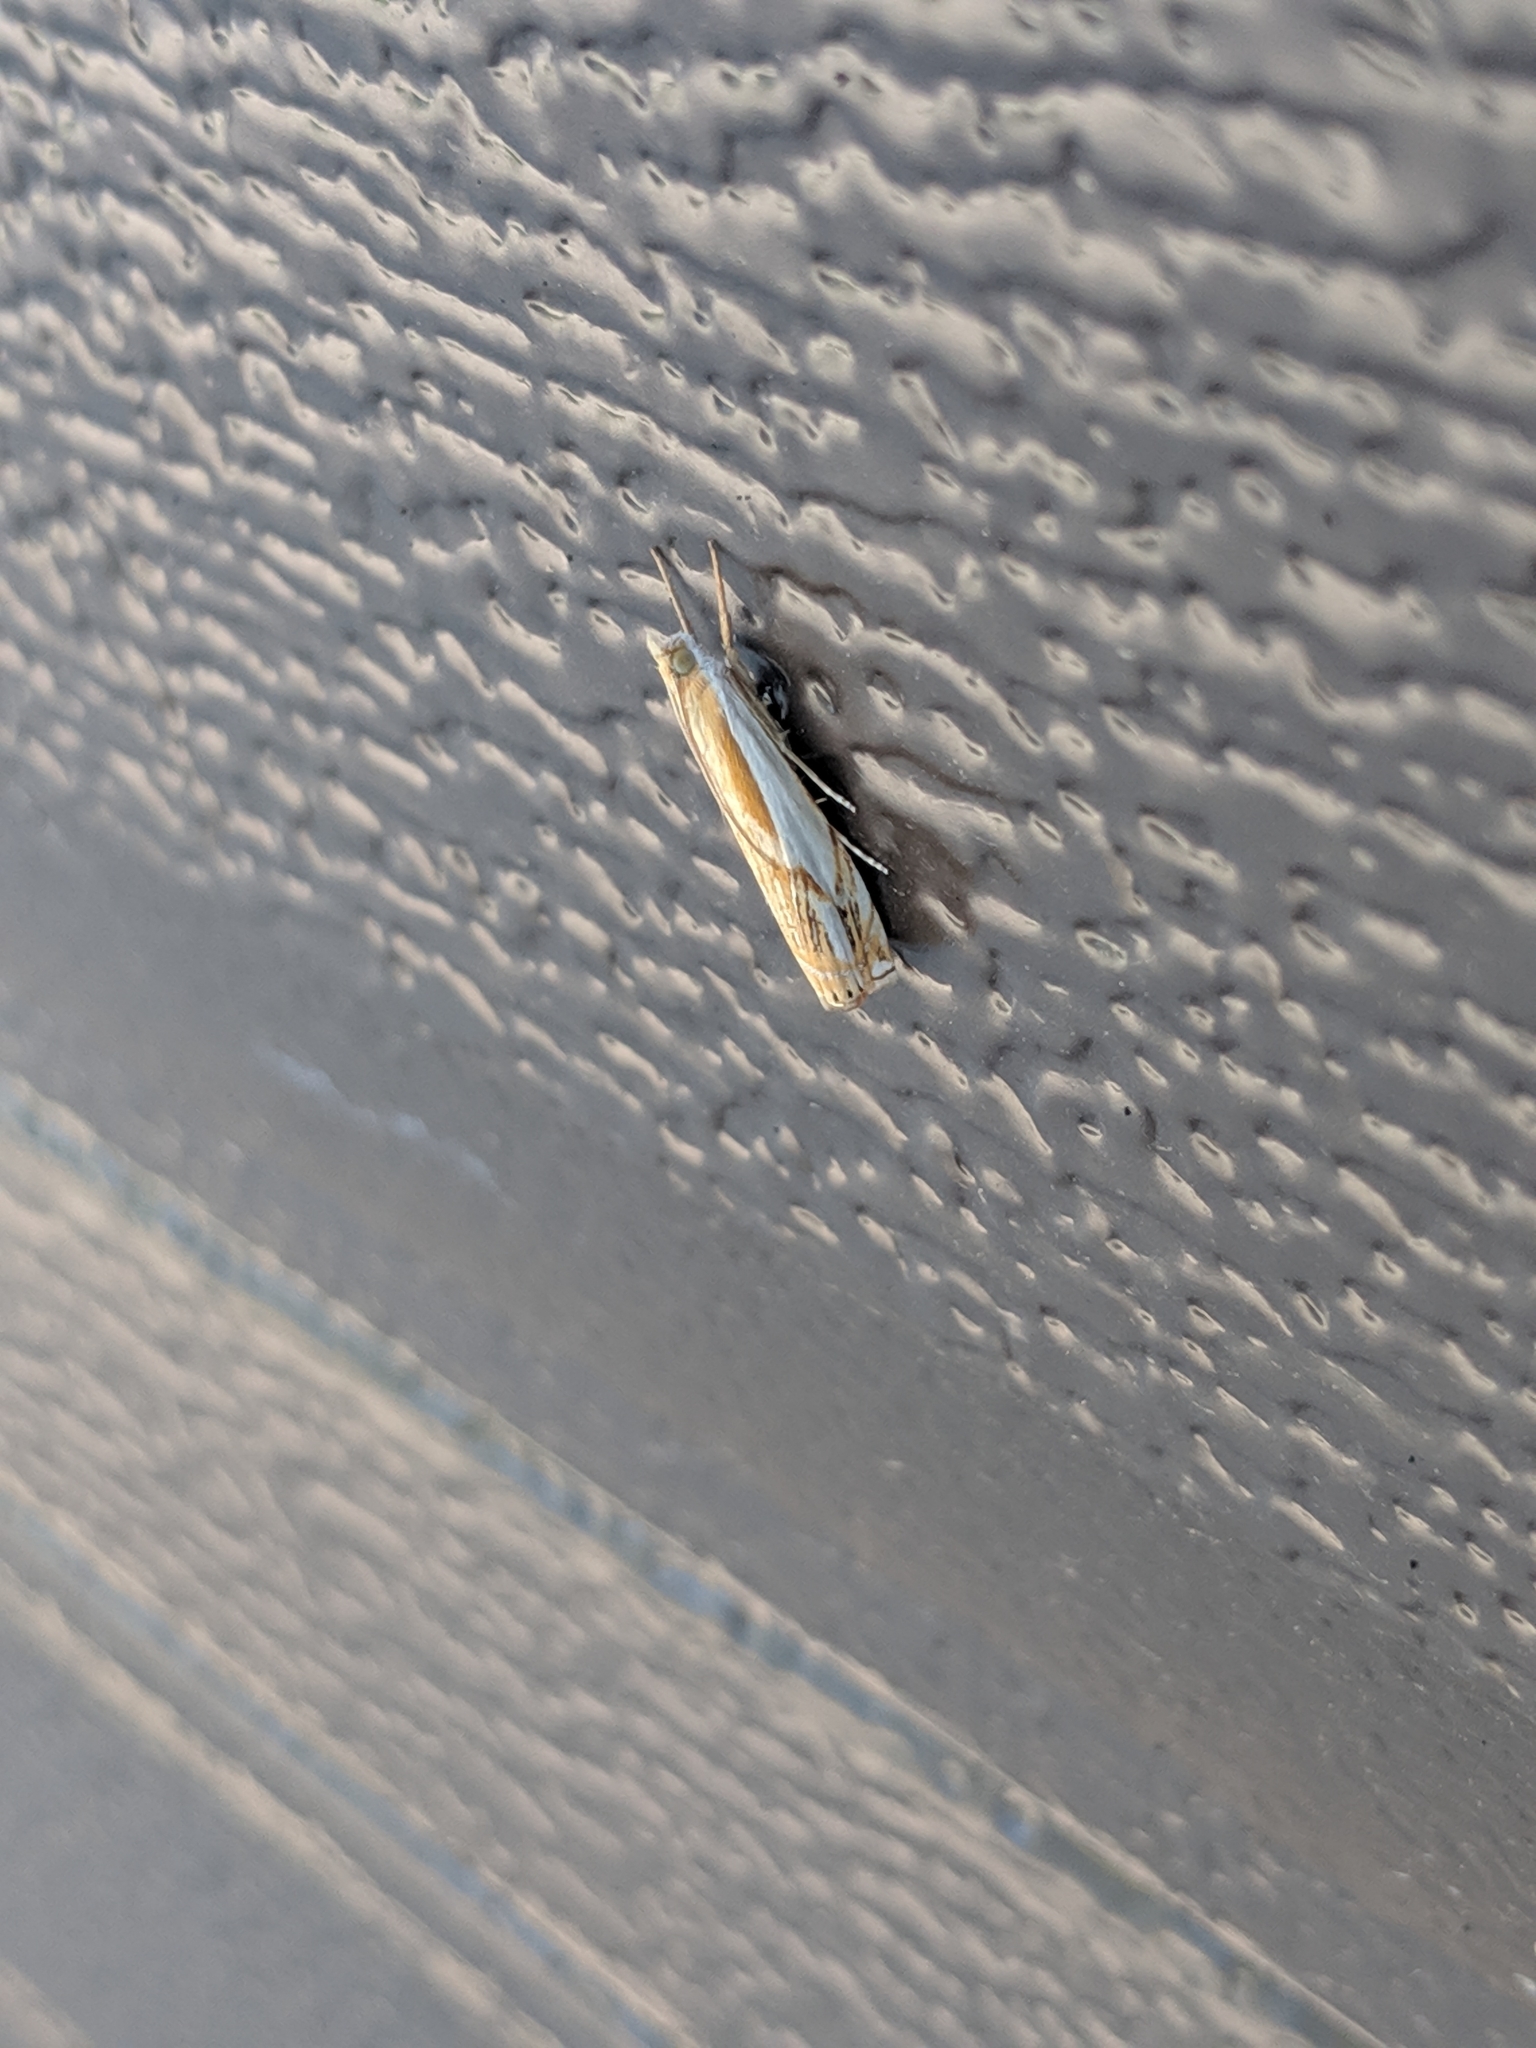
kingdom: Animalia
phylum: Arthropoda
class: Insecta
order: Lepidoptera
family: Crambidae
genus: Crambus
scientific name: Crambus agitatellus
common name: Double-banded grass-veneer
